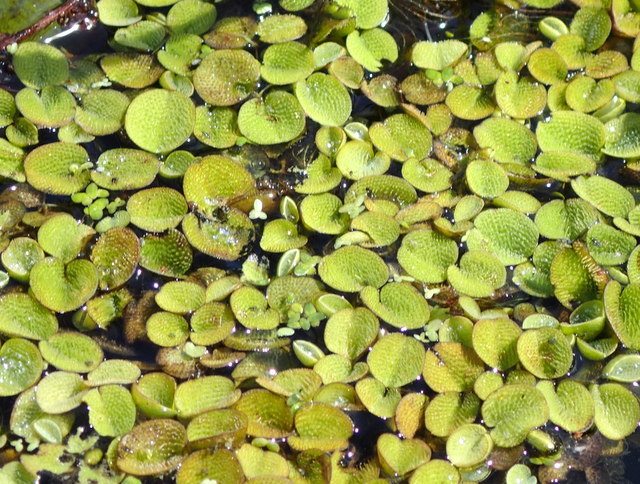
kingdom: Plantae
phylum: Tracheophyta
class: Polypodiopsida
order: Salviniales
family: Salviniaceae
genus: Salvinia
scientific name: Salvinia minima
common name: Water spangles
